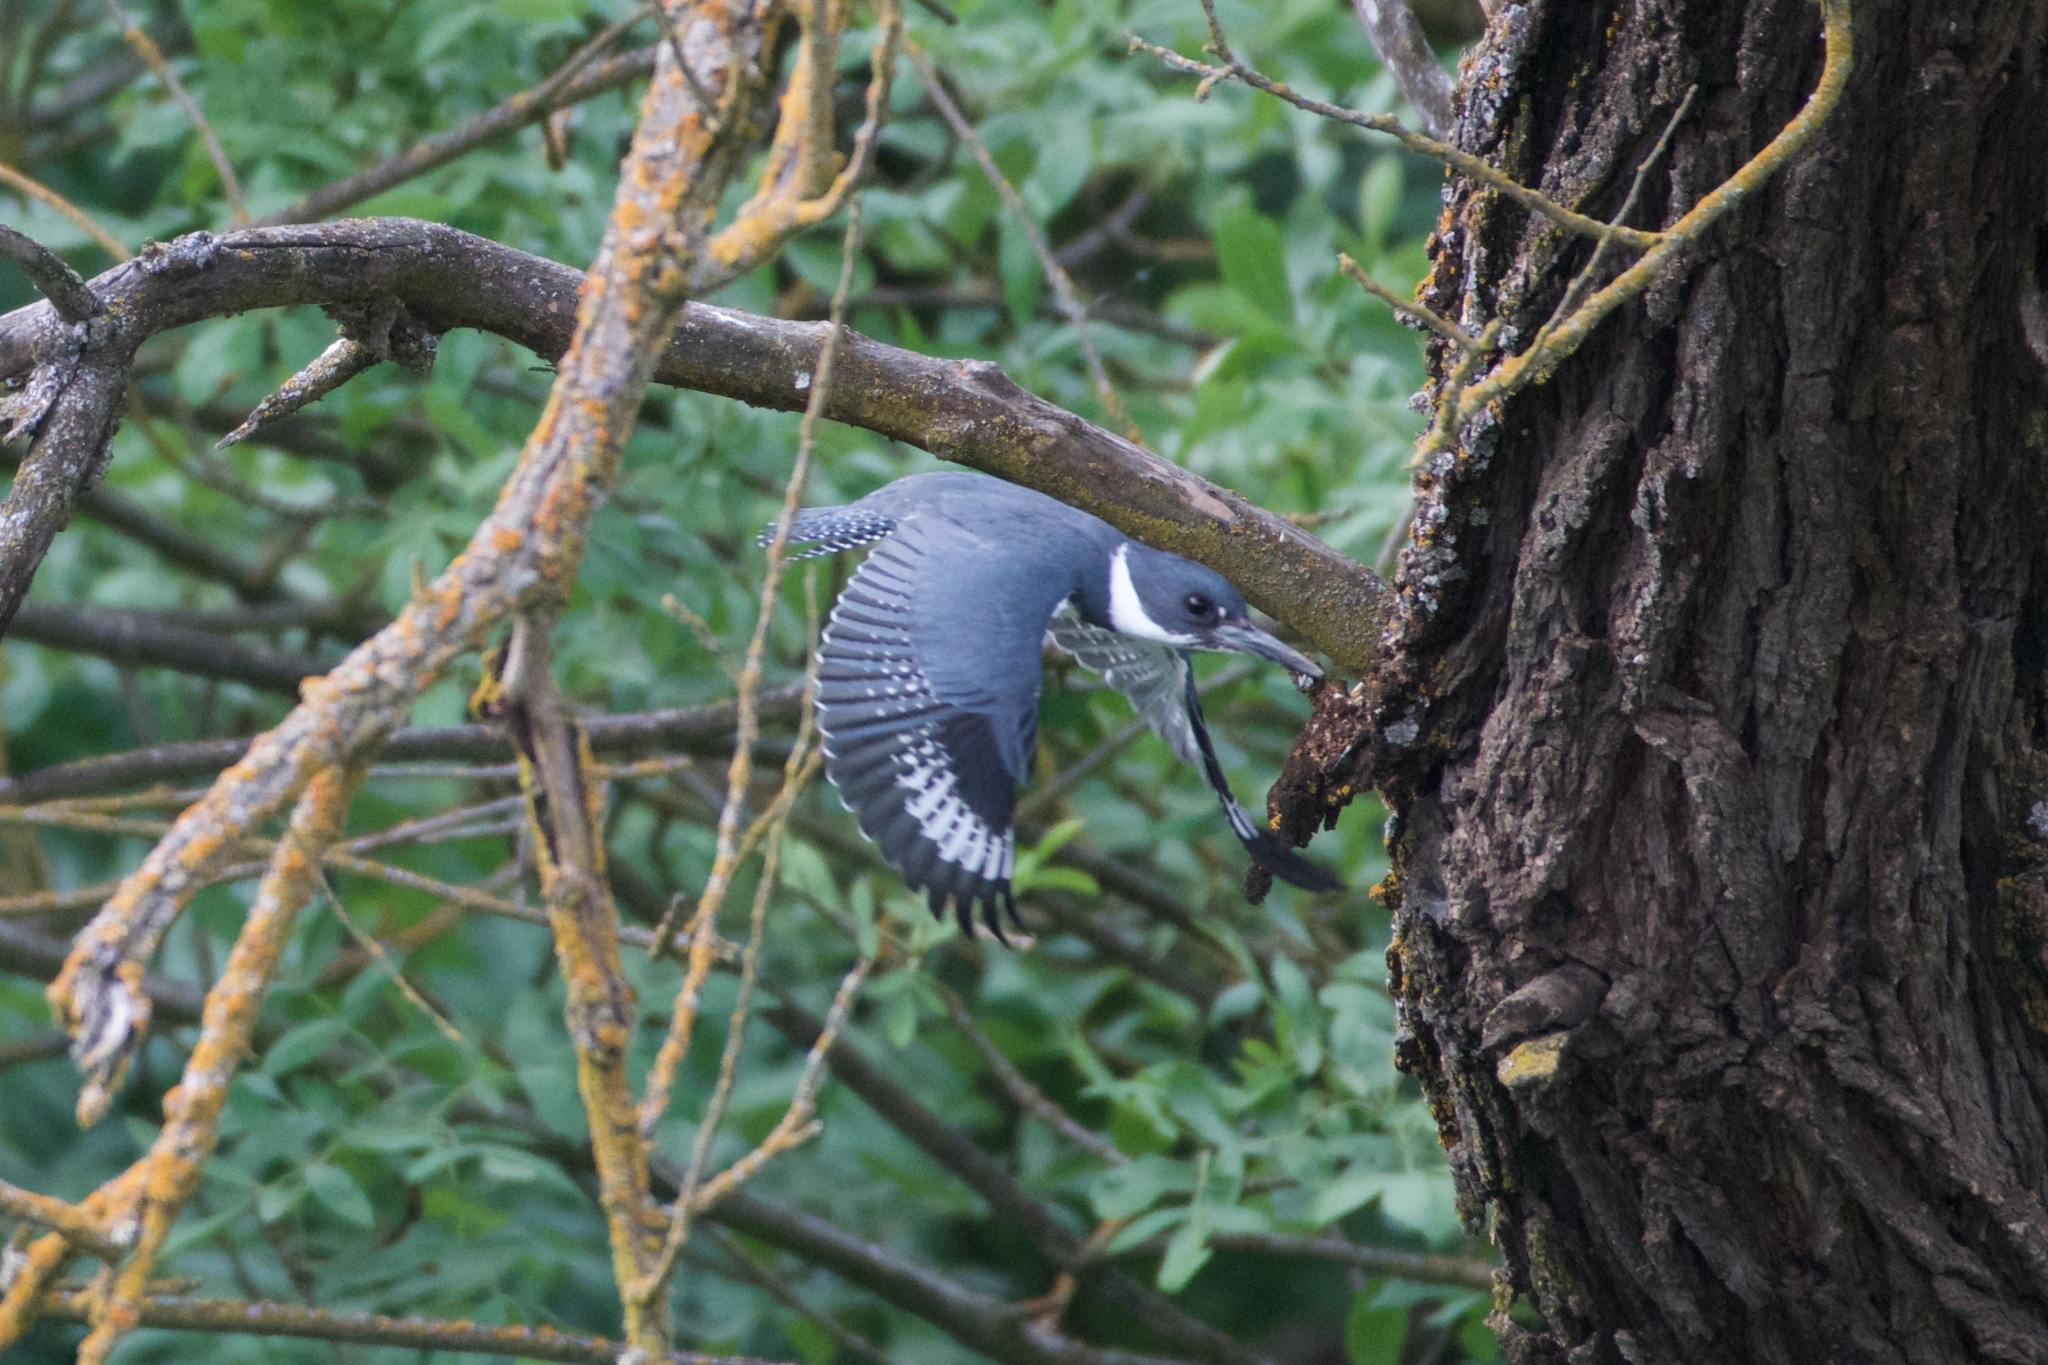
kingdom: Animalia
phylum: Chordata
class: Aves
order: Coraciiformes
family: Alcedinidae
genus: Megaceryle
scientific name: Megaceryle alcyon
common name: Belted kingfisher
